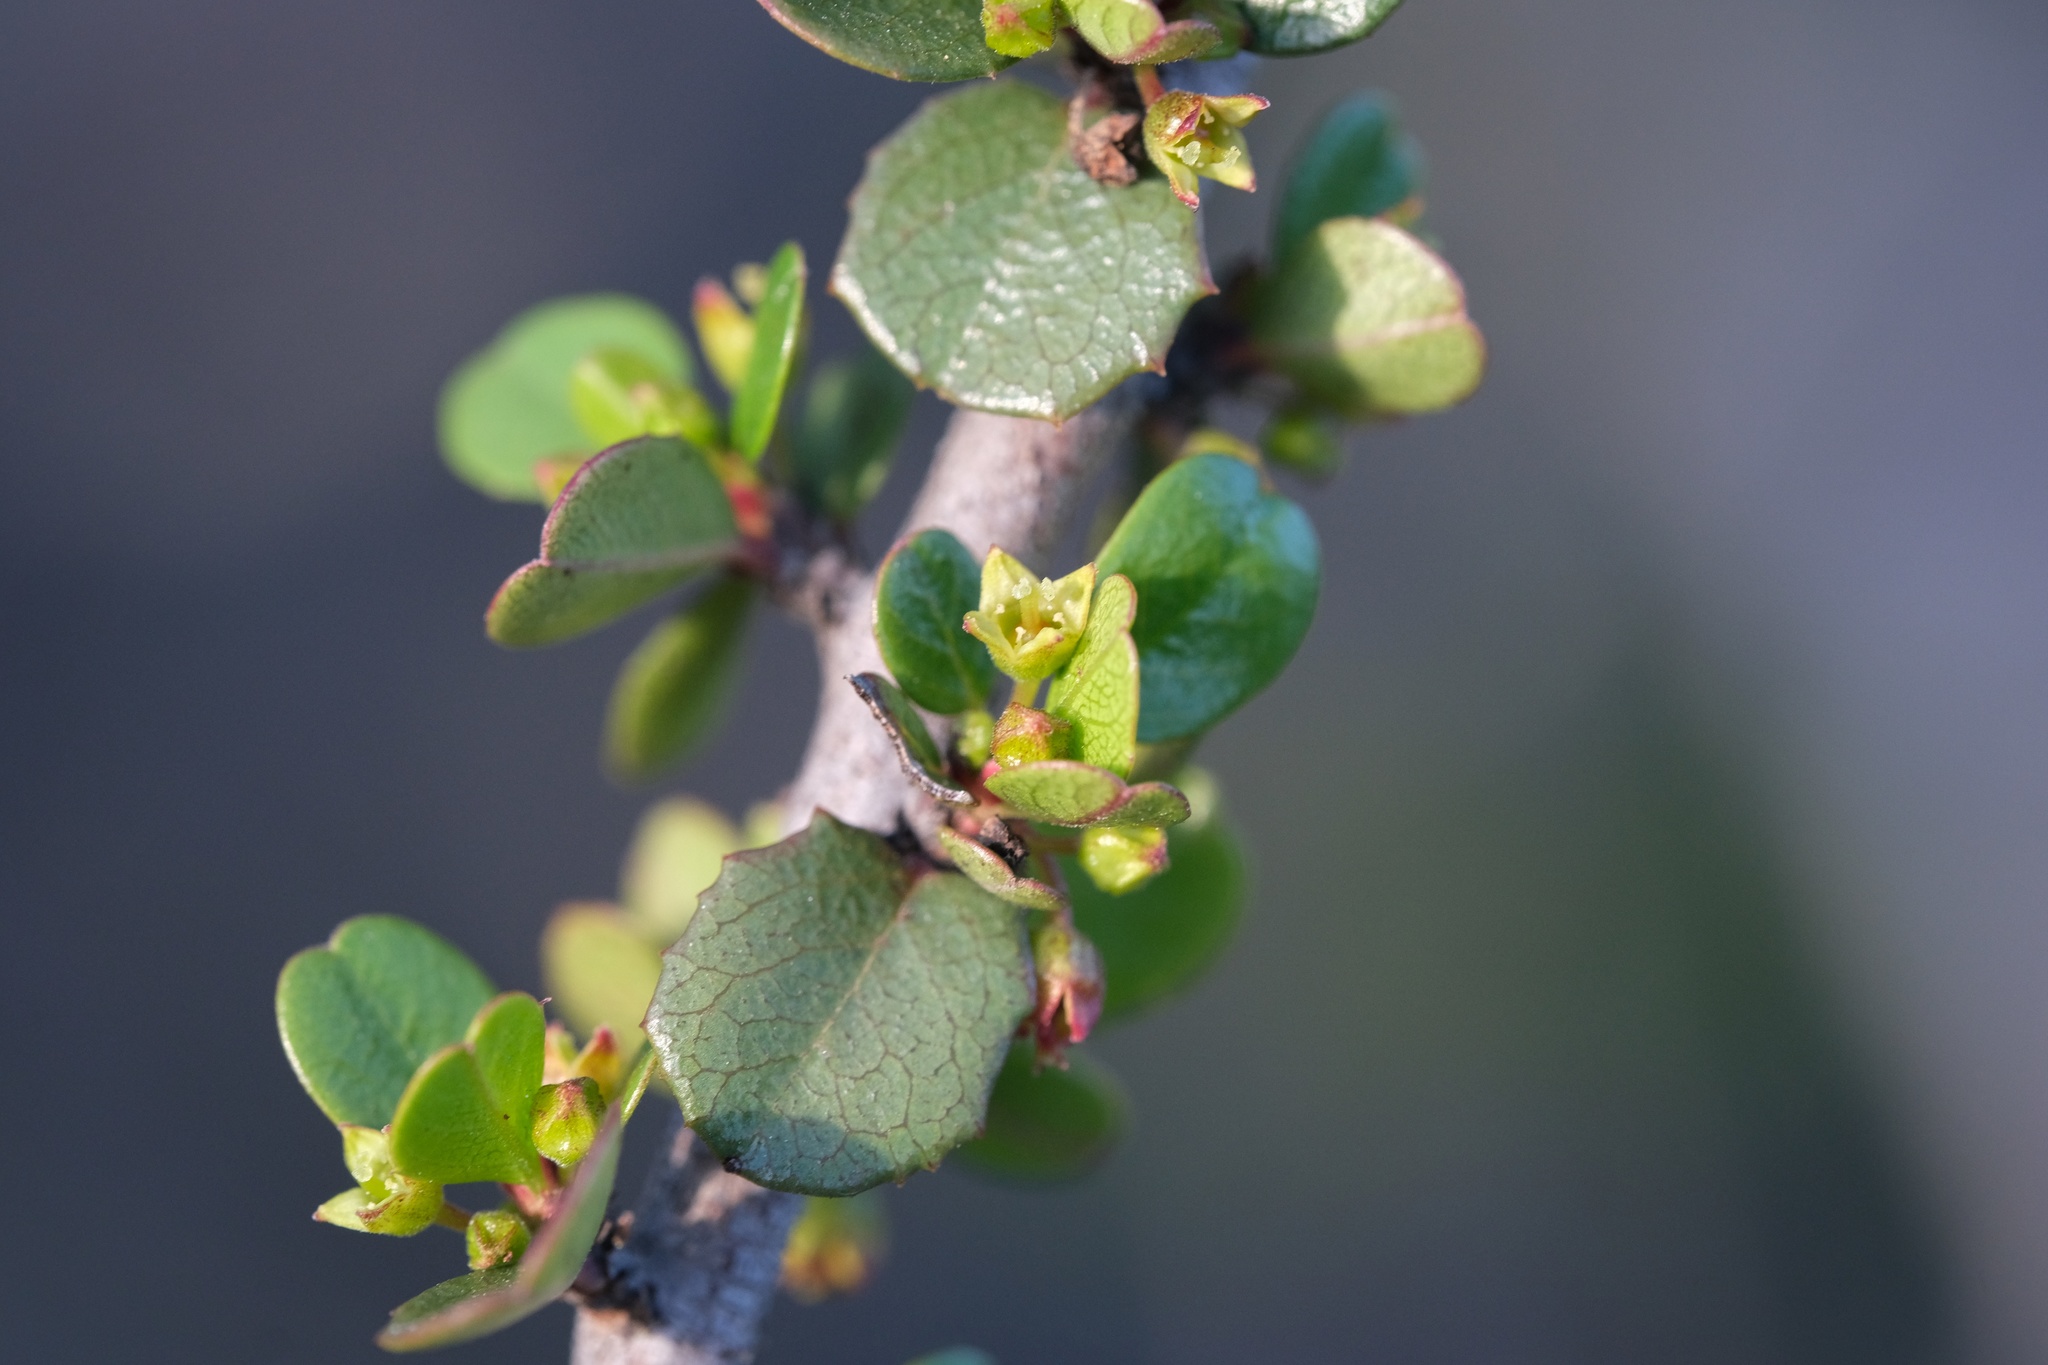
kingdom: Plantae
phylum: Tracheophyta
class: Magnoliopsida
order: Rosales
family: Rhamnaceae
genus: Endotropis
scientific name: Endotropis crocea
